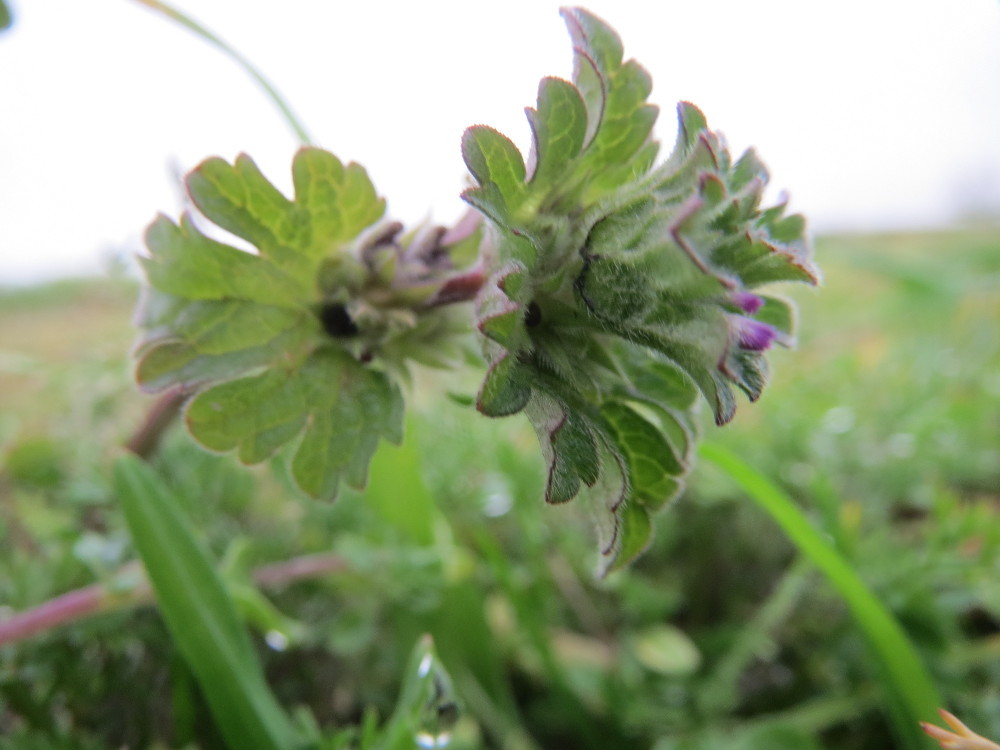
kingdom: Plantae
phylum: Tracheophyta
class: Magnoliopsida
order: Lamiales
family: Lamiaceae
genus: Lamium
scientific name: Lamium amplexicaule
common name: Henbit dead-nettle
